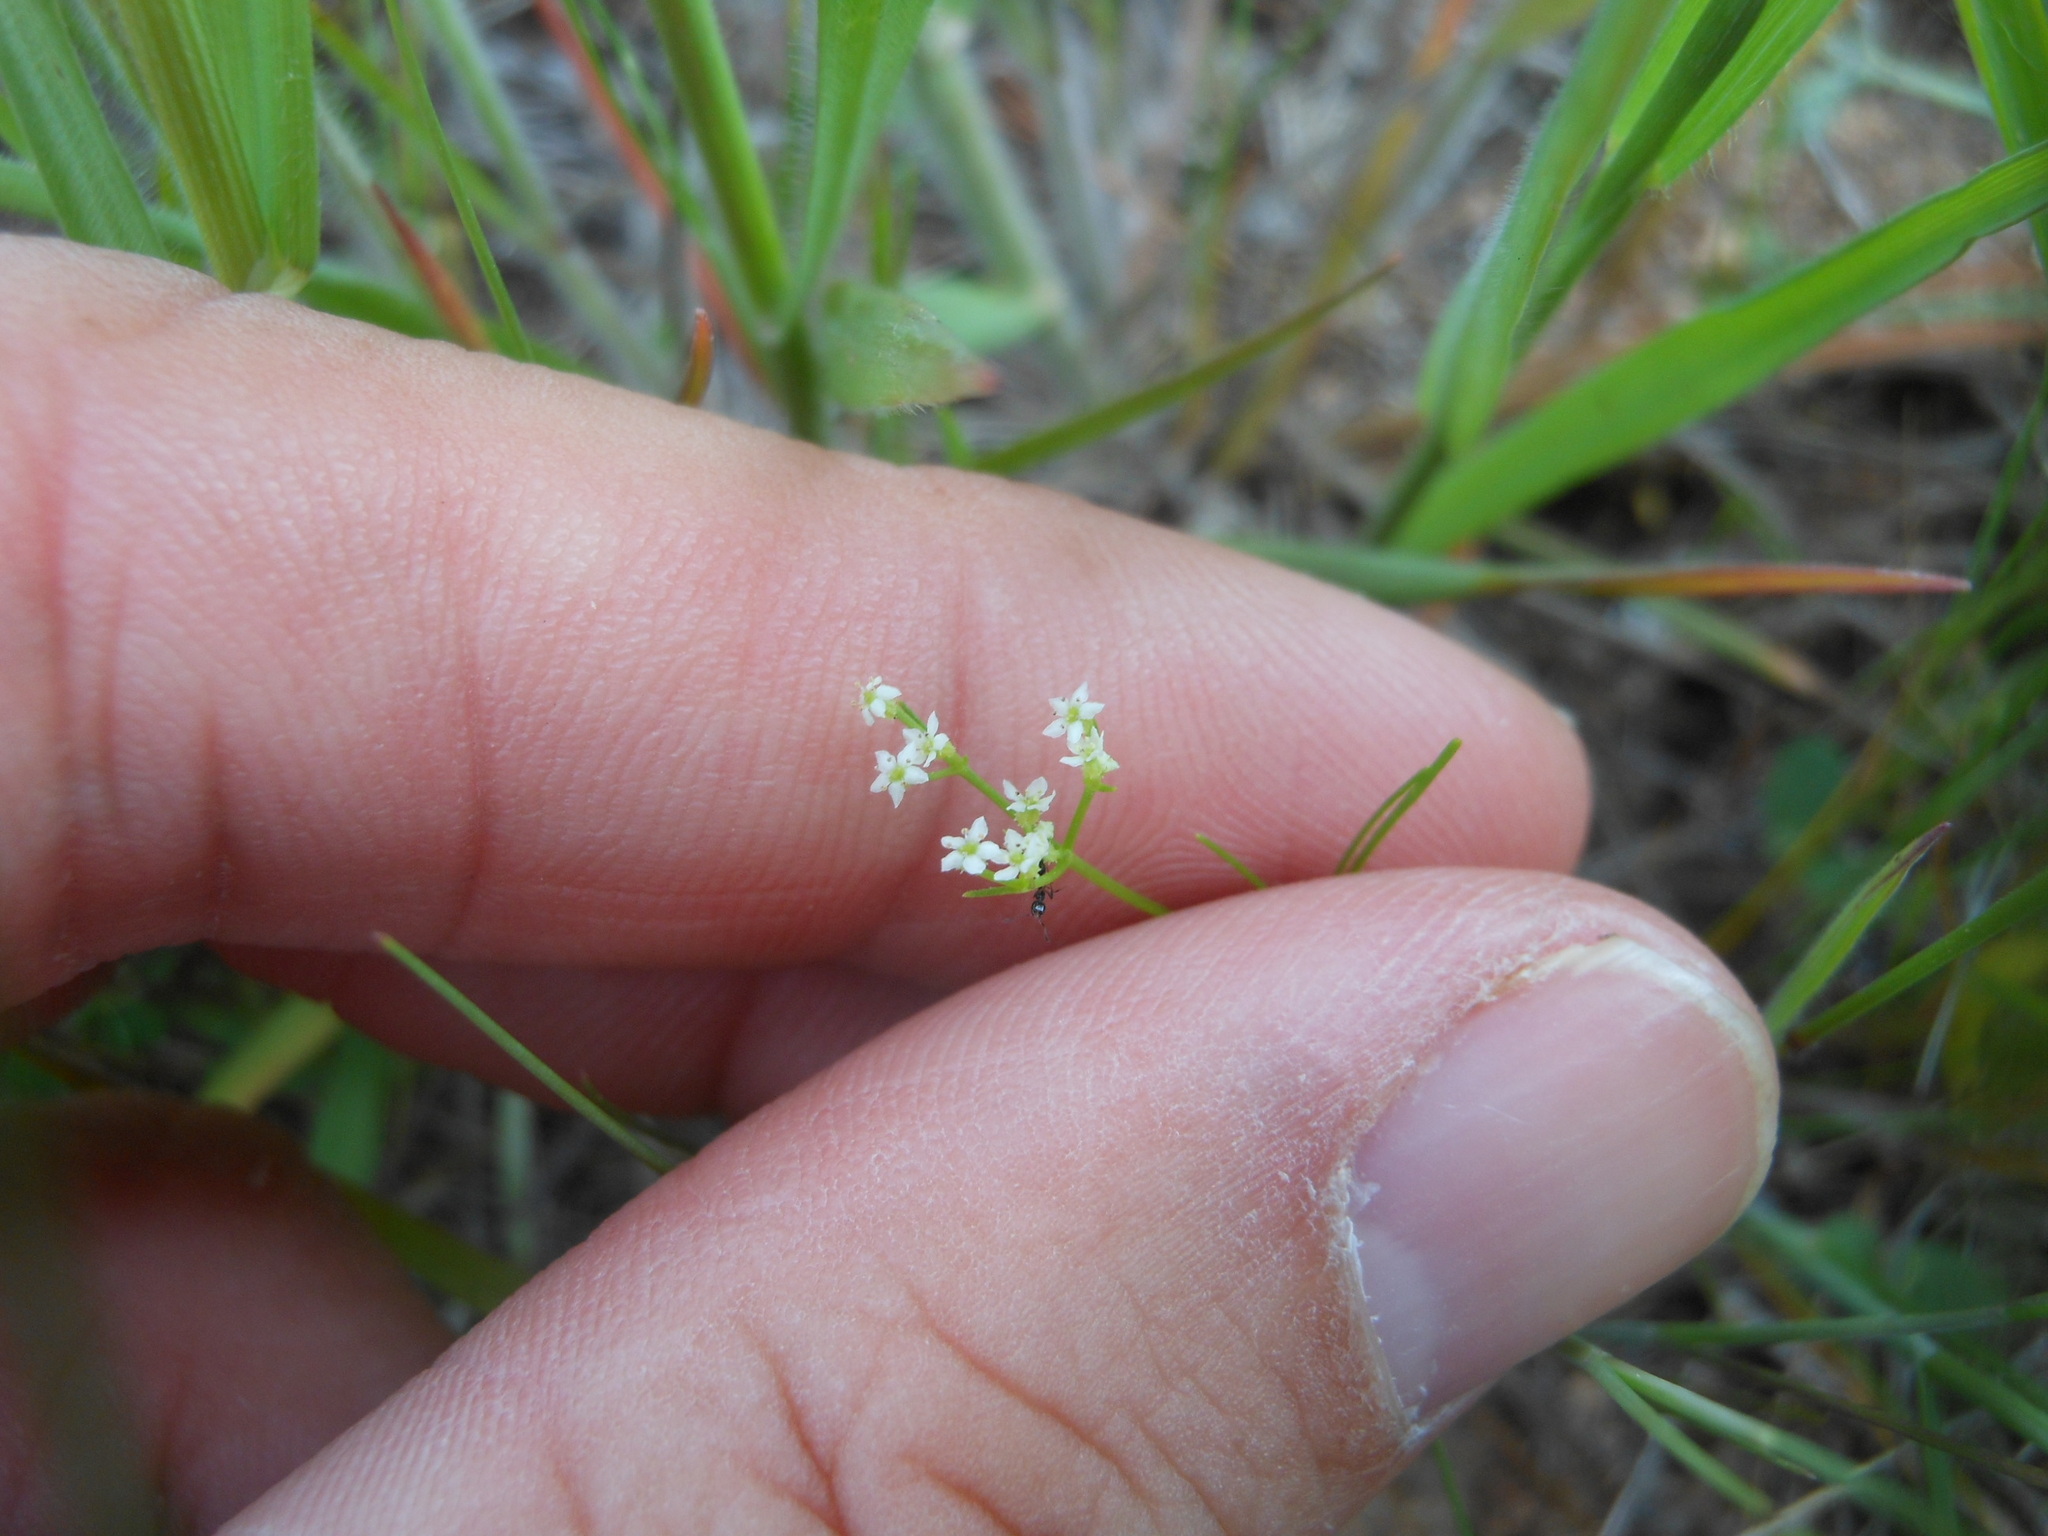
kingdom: Plantae
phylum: Tracheophyta
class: Magnoliopsida
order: Apiales
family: Apiaceae
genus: Spermolepis
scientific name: Spermolepis echinata
